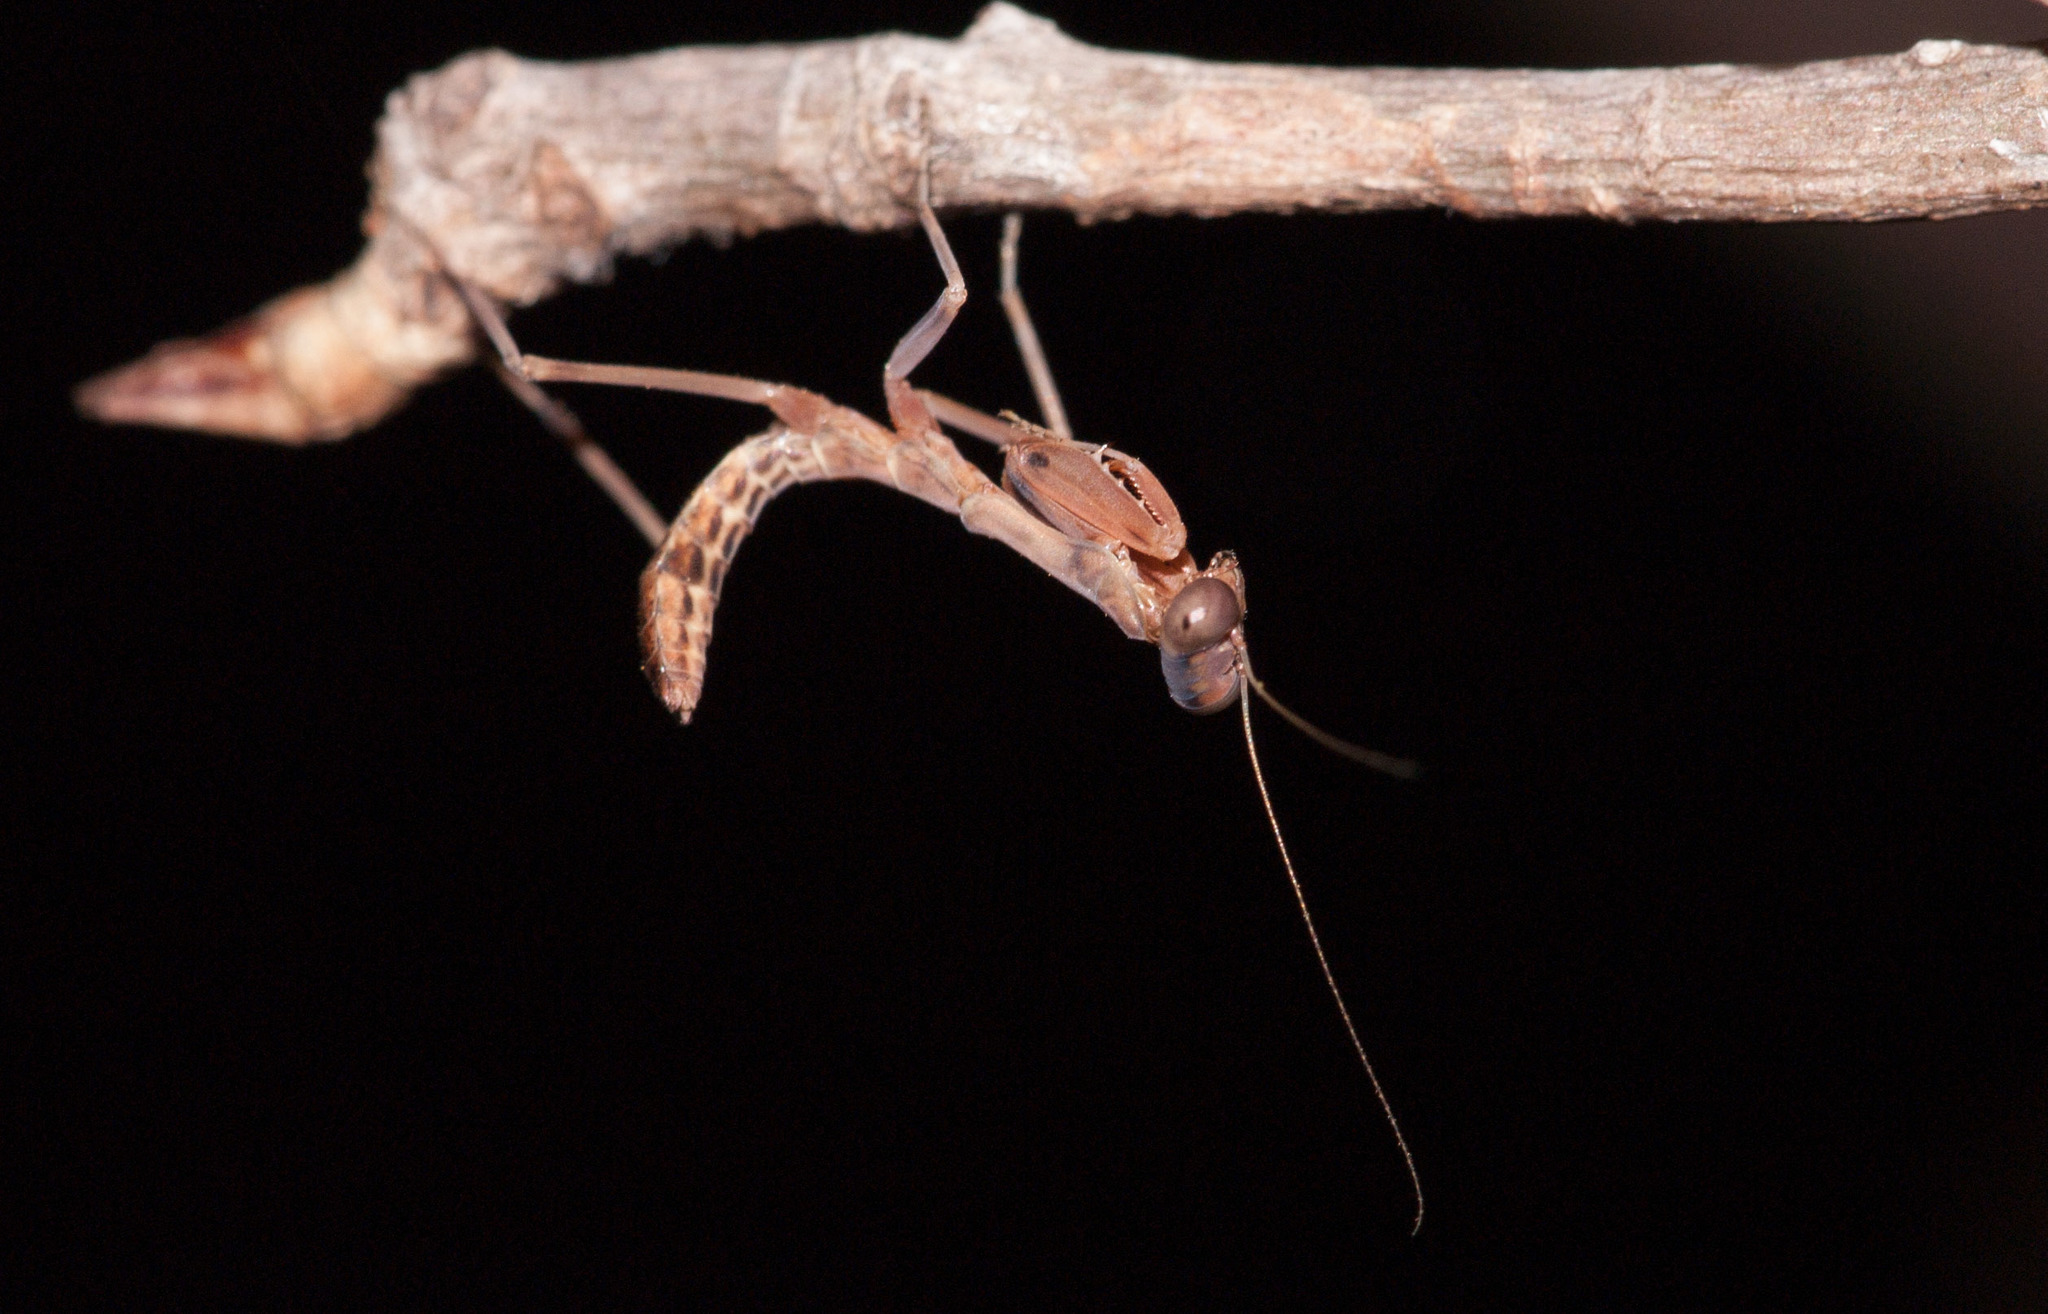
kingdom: Animalia
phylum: Arthropoda
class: Insecta
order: Mantodea
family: Mantidae
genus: Sphodropoda
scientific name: Sphodropoda tristis
